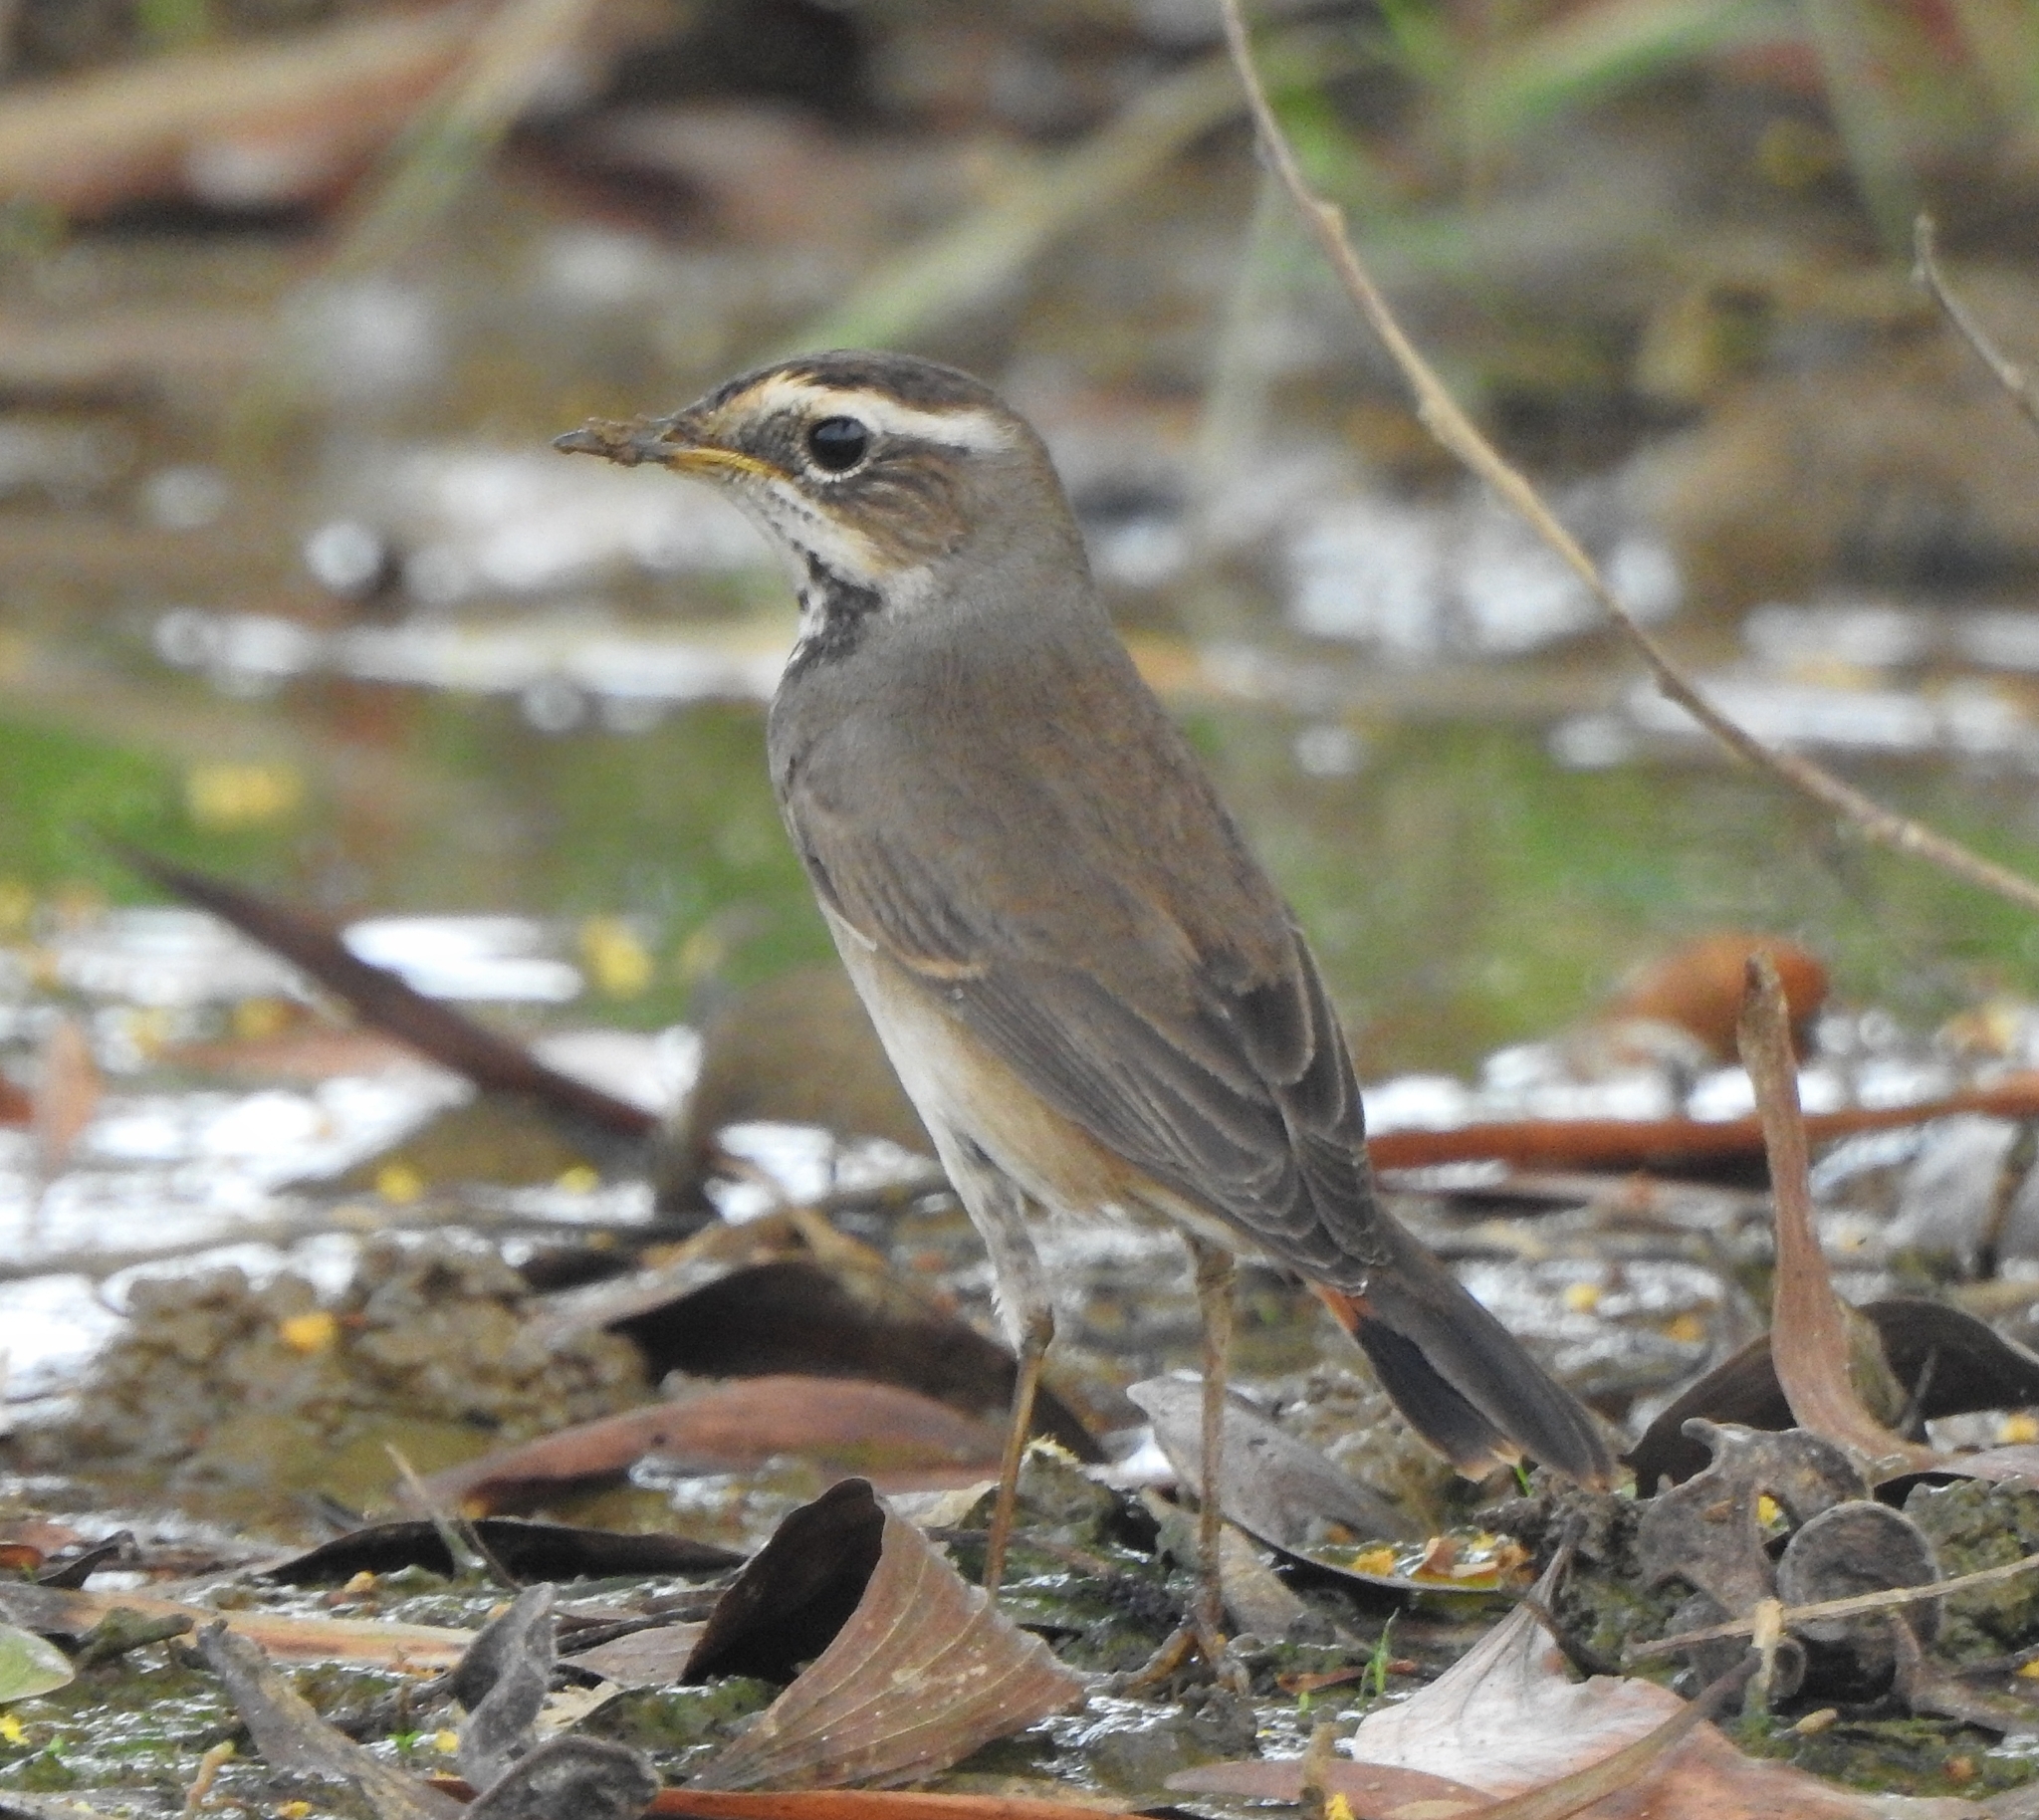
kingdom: Animalia
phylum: Chordata
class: Aves
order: Passeriformes
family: Muscicapidae
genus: Luscinia
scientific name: Luscinia svecica
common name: Bluethroat
